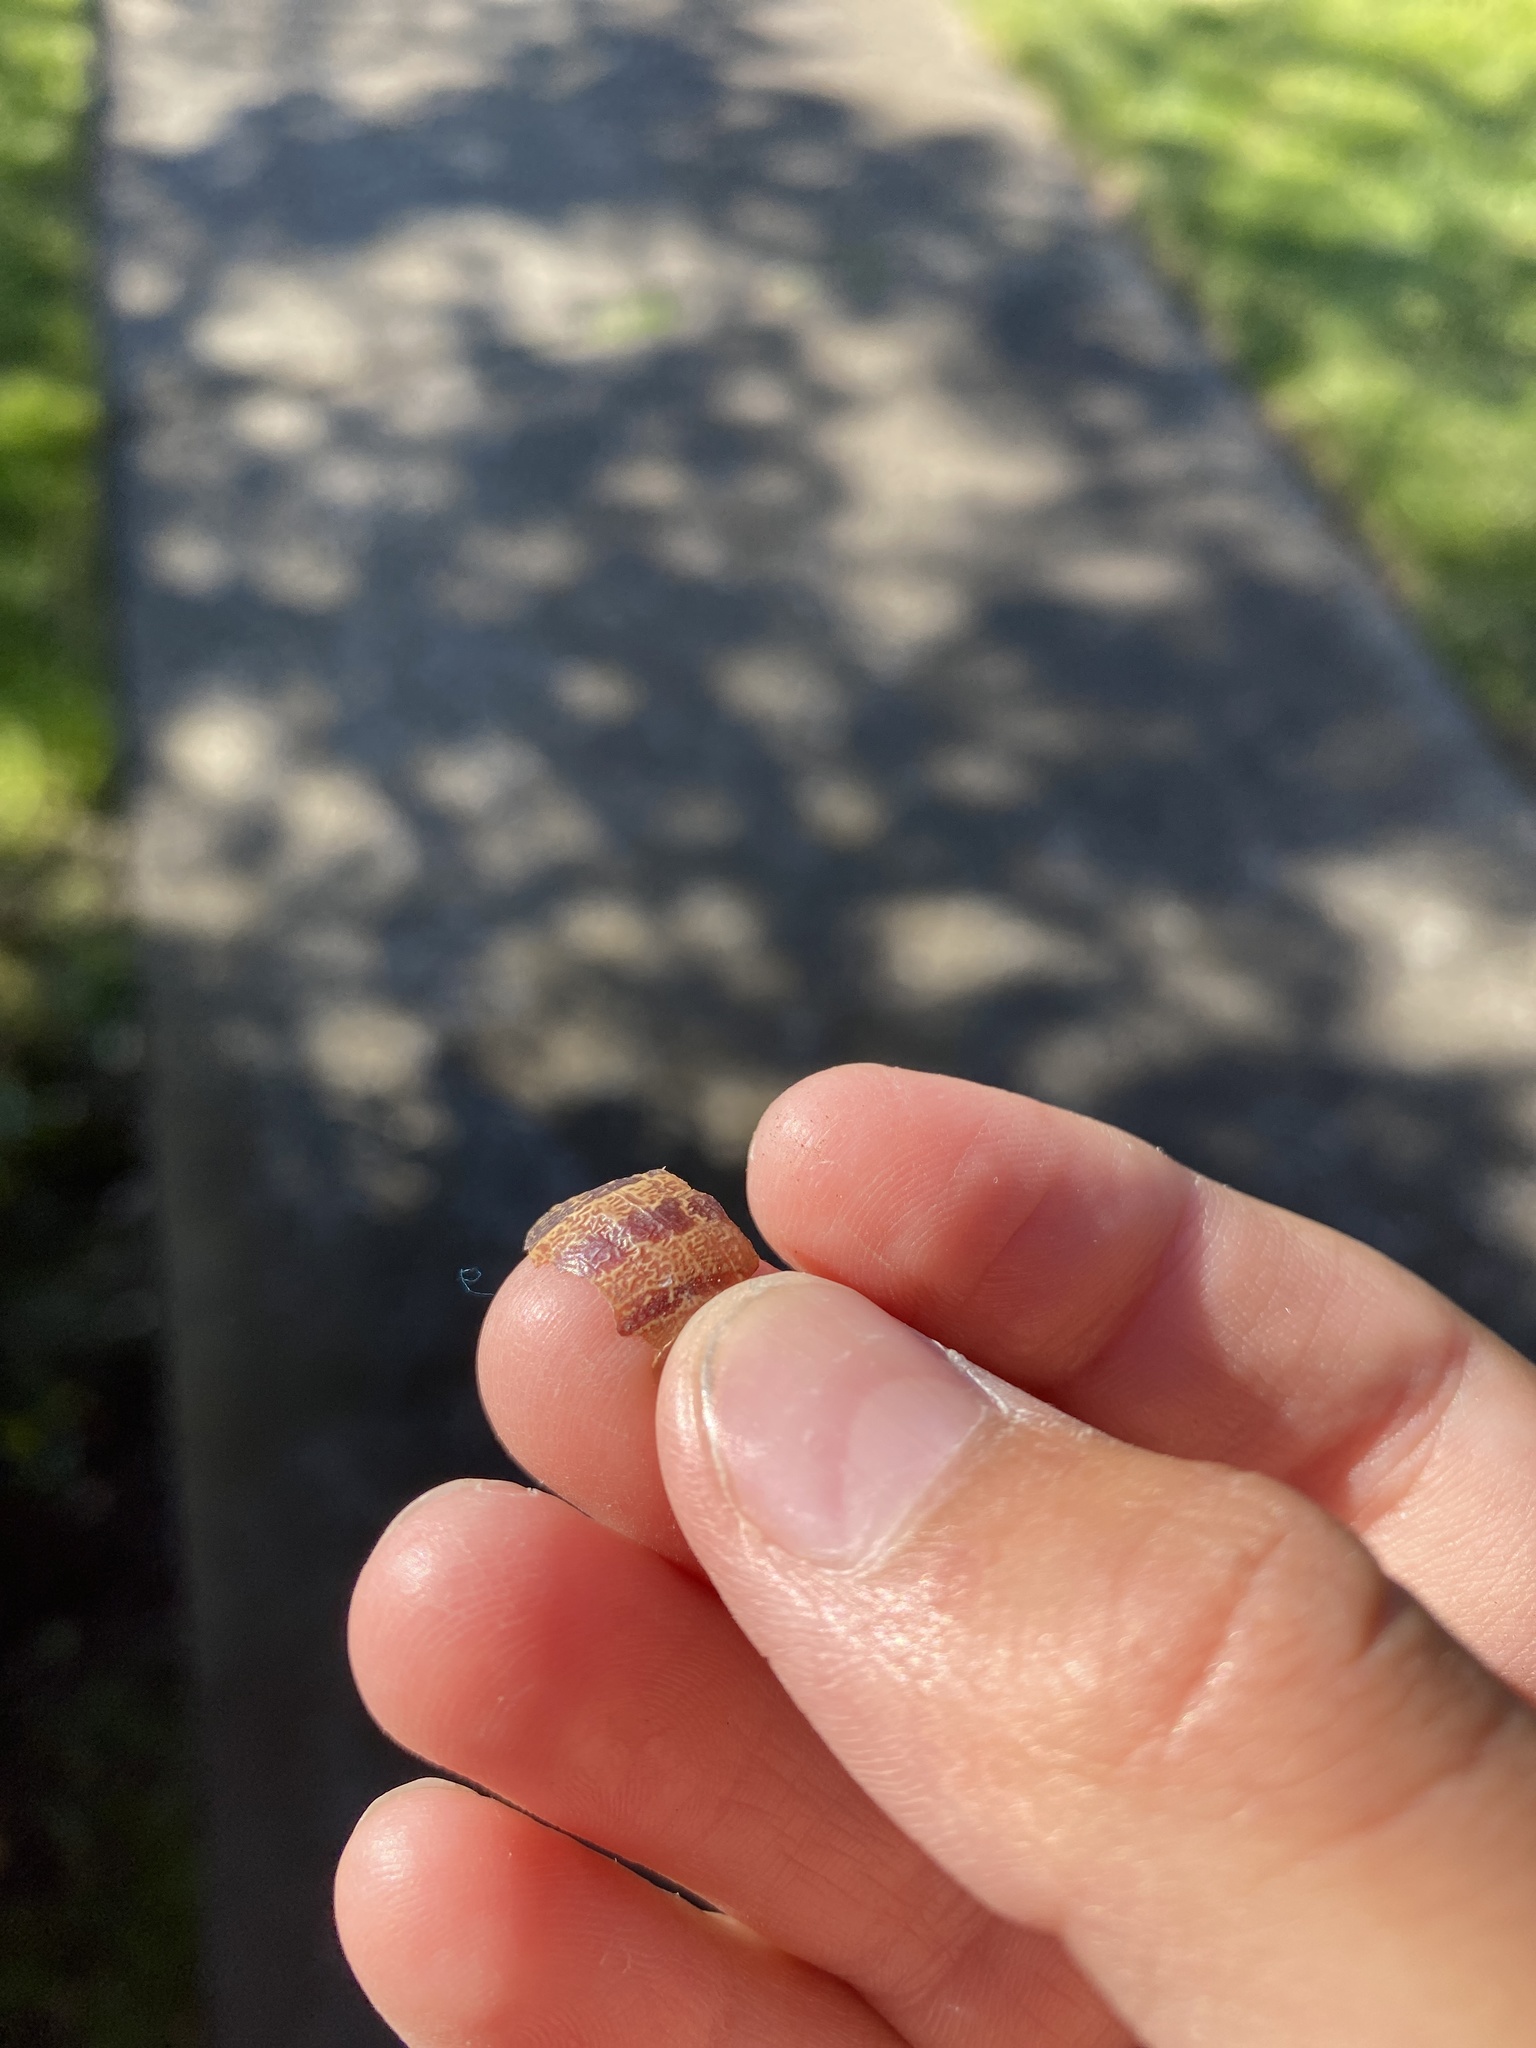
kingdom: Animalia
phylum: Mollusca
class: Gastropoda
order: Stylommatophora
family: Helicidae
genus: Cornu
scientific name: Cornu aspersum
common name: Brown garden snail
